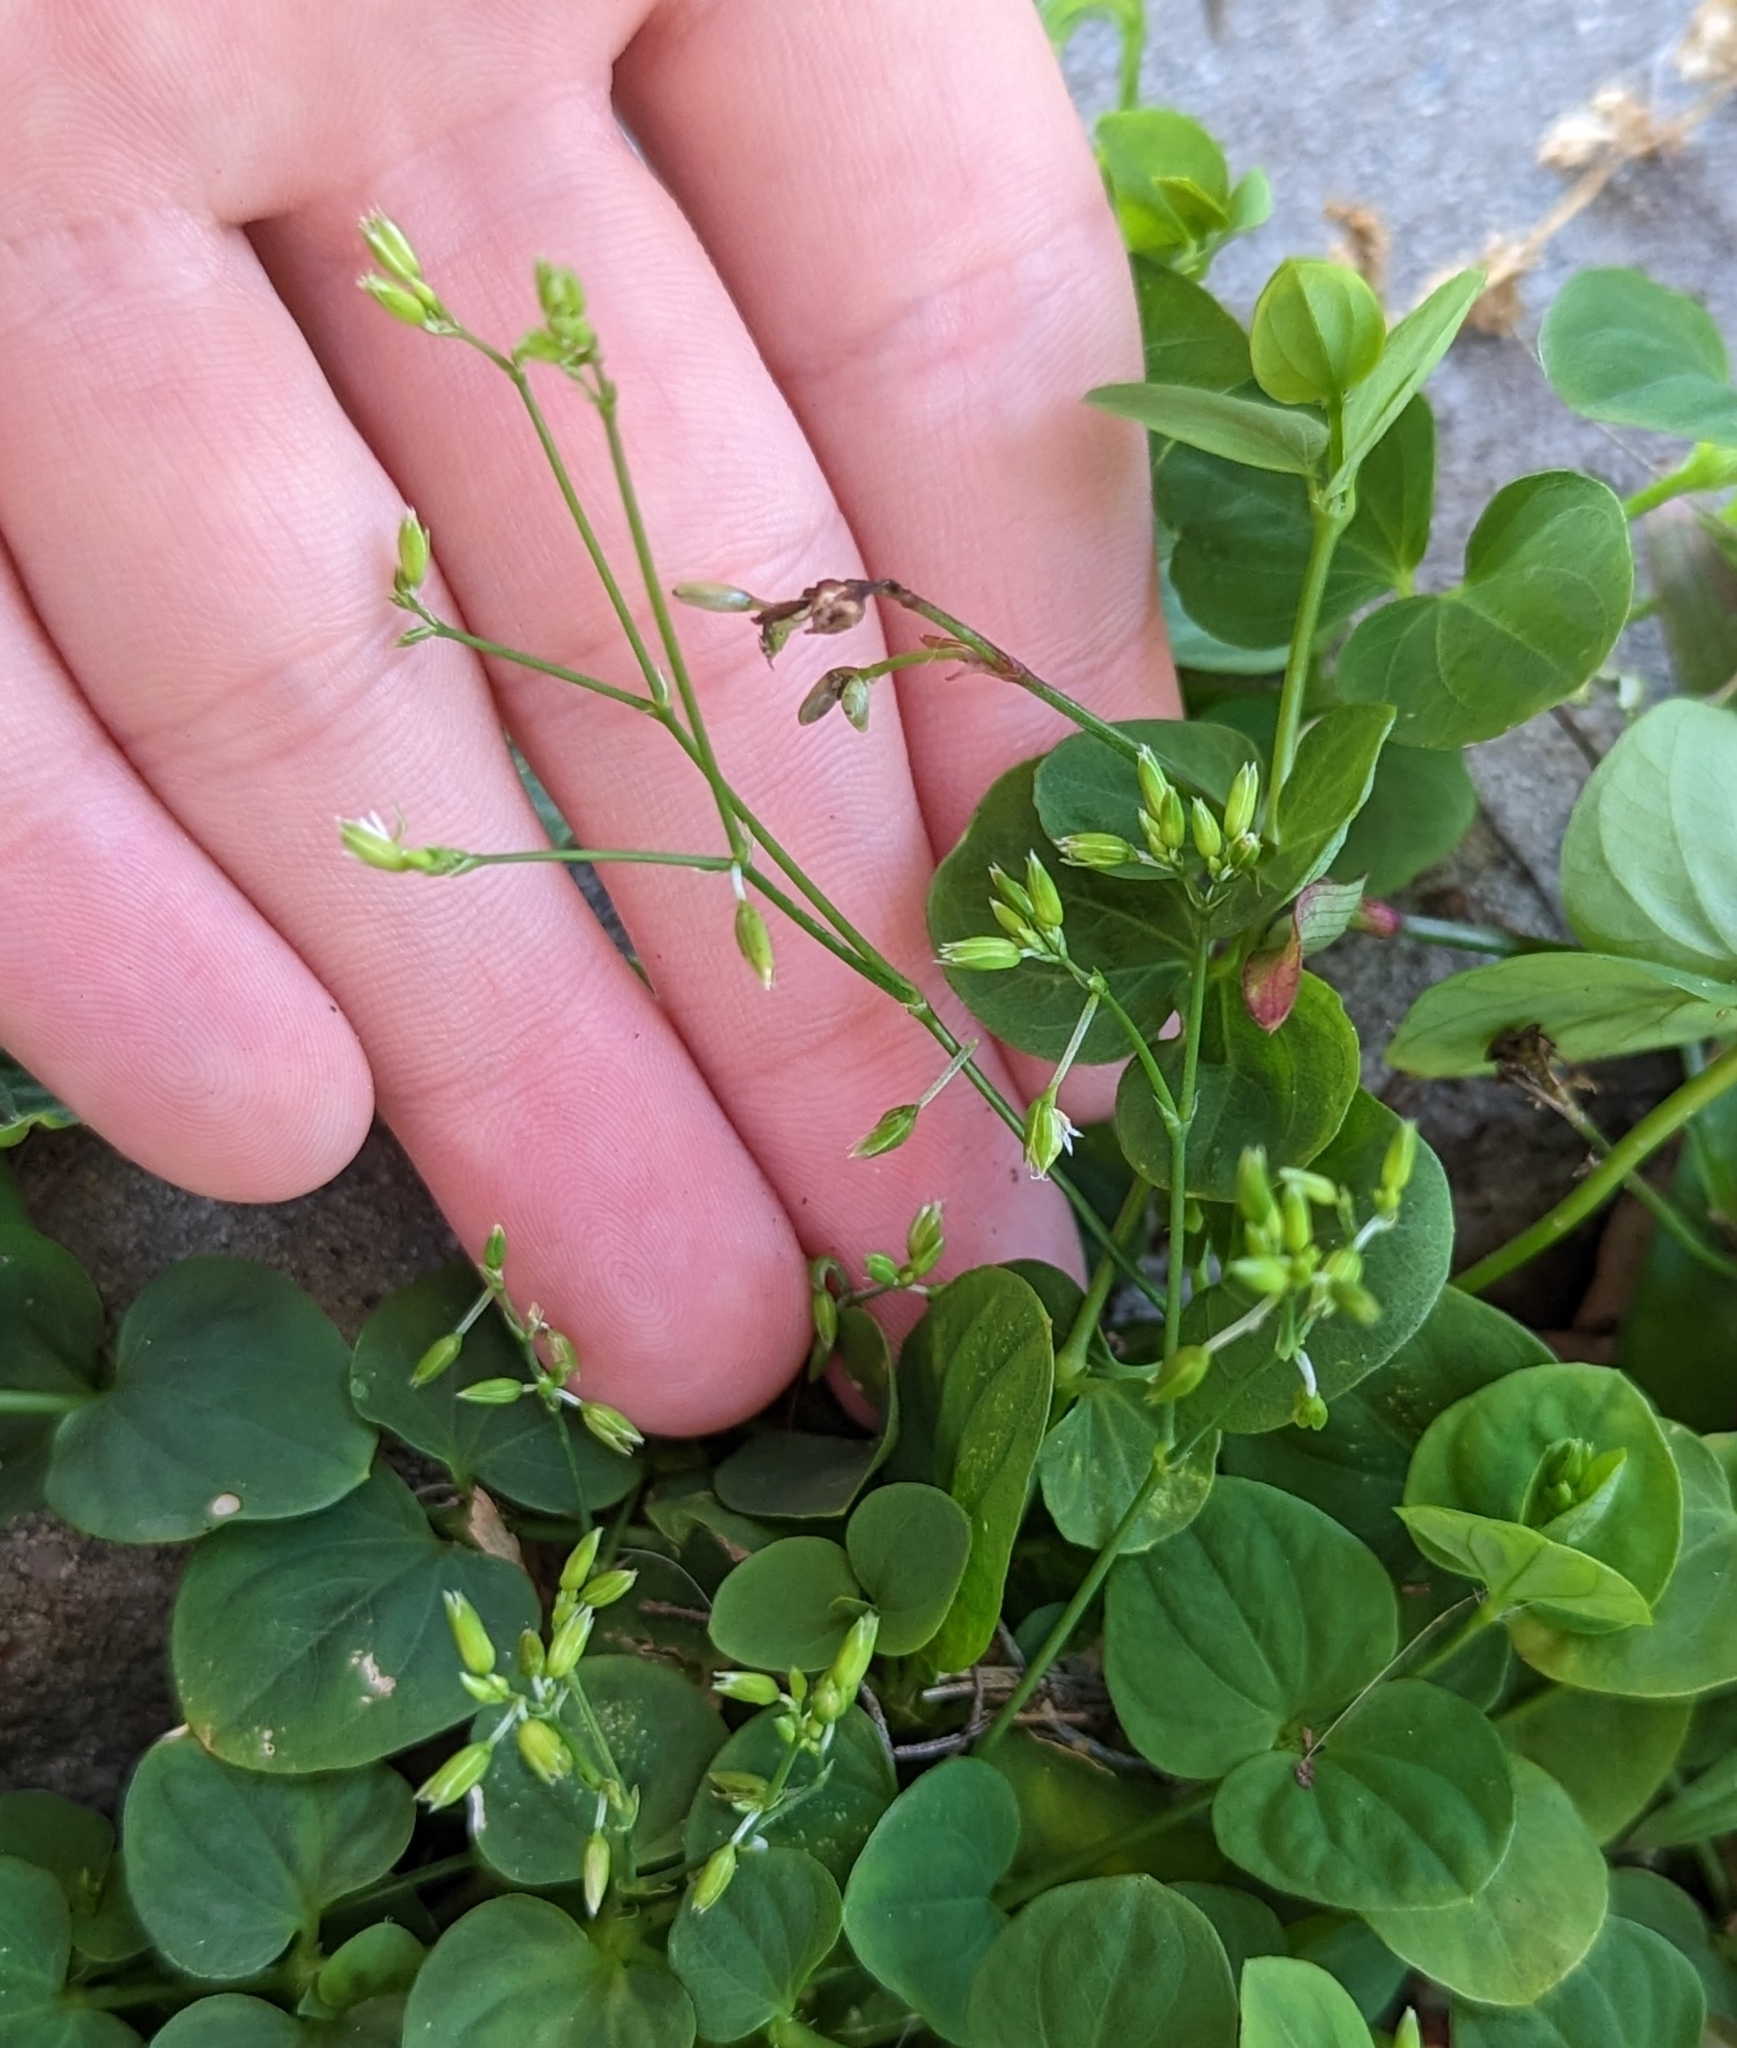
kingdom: Plantae
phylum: Tracheophyta
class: Magnoliopsida
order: Caryophyllales
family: Caryophyllaceae
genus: Drymaria
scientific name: Drymaria cordata
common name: Whitesnow
